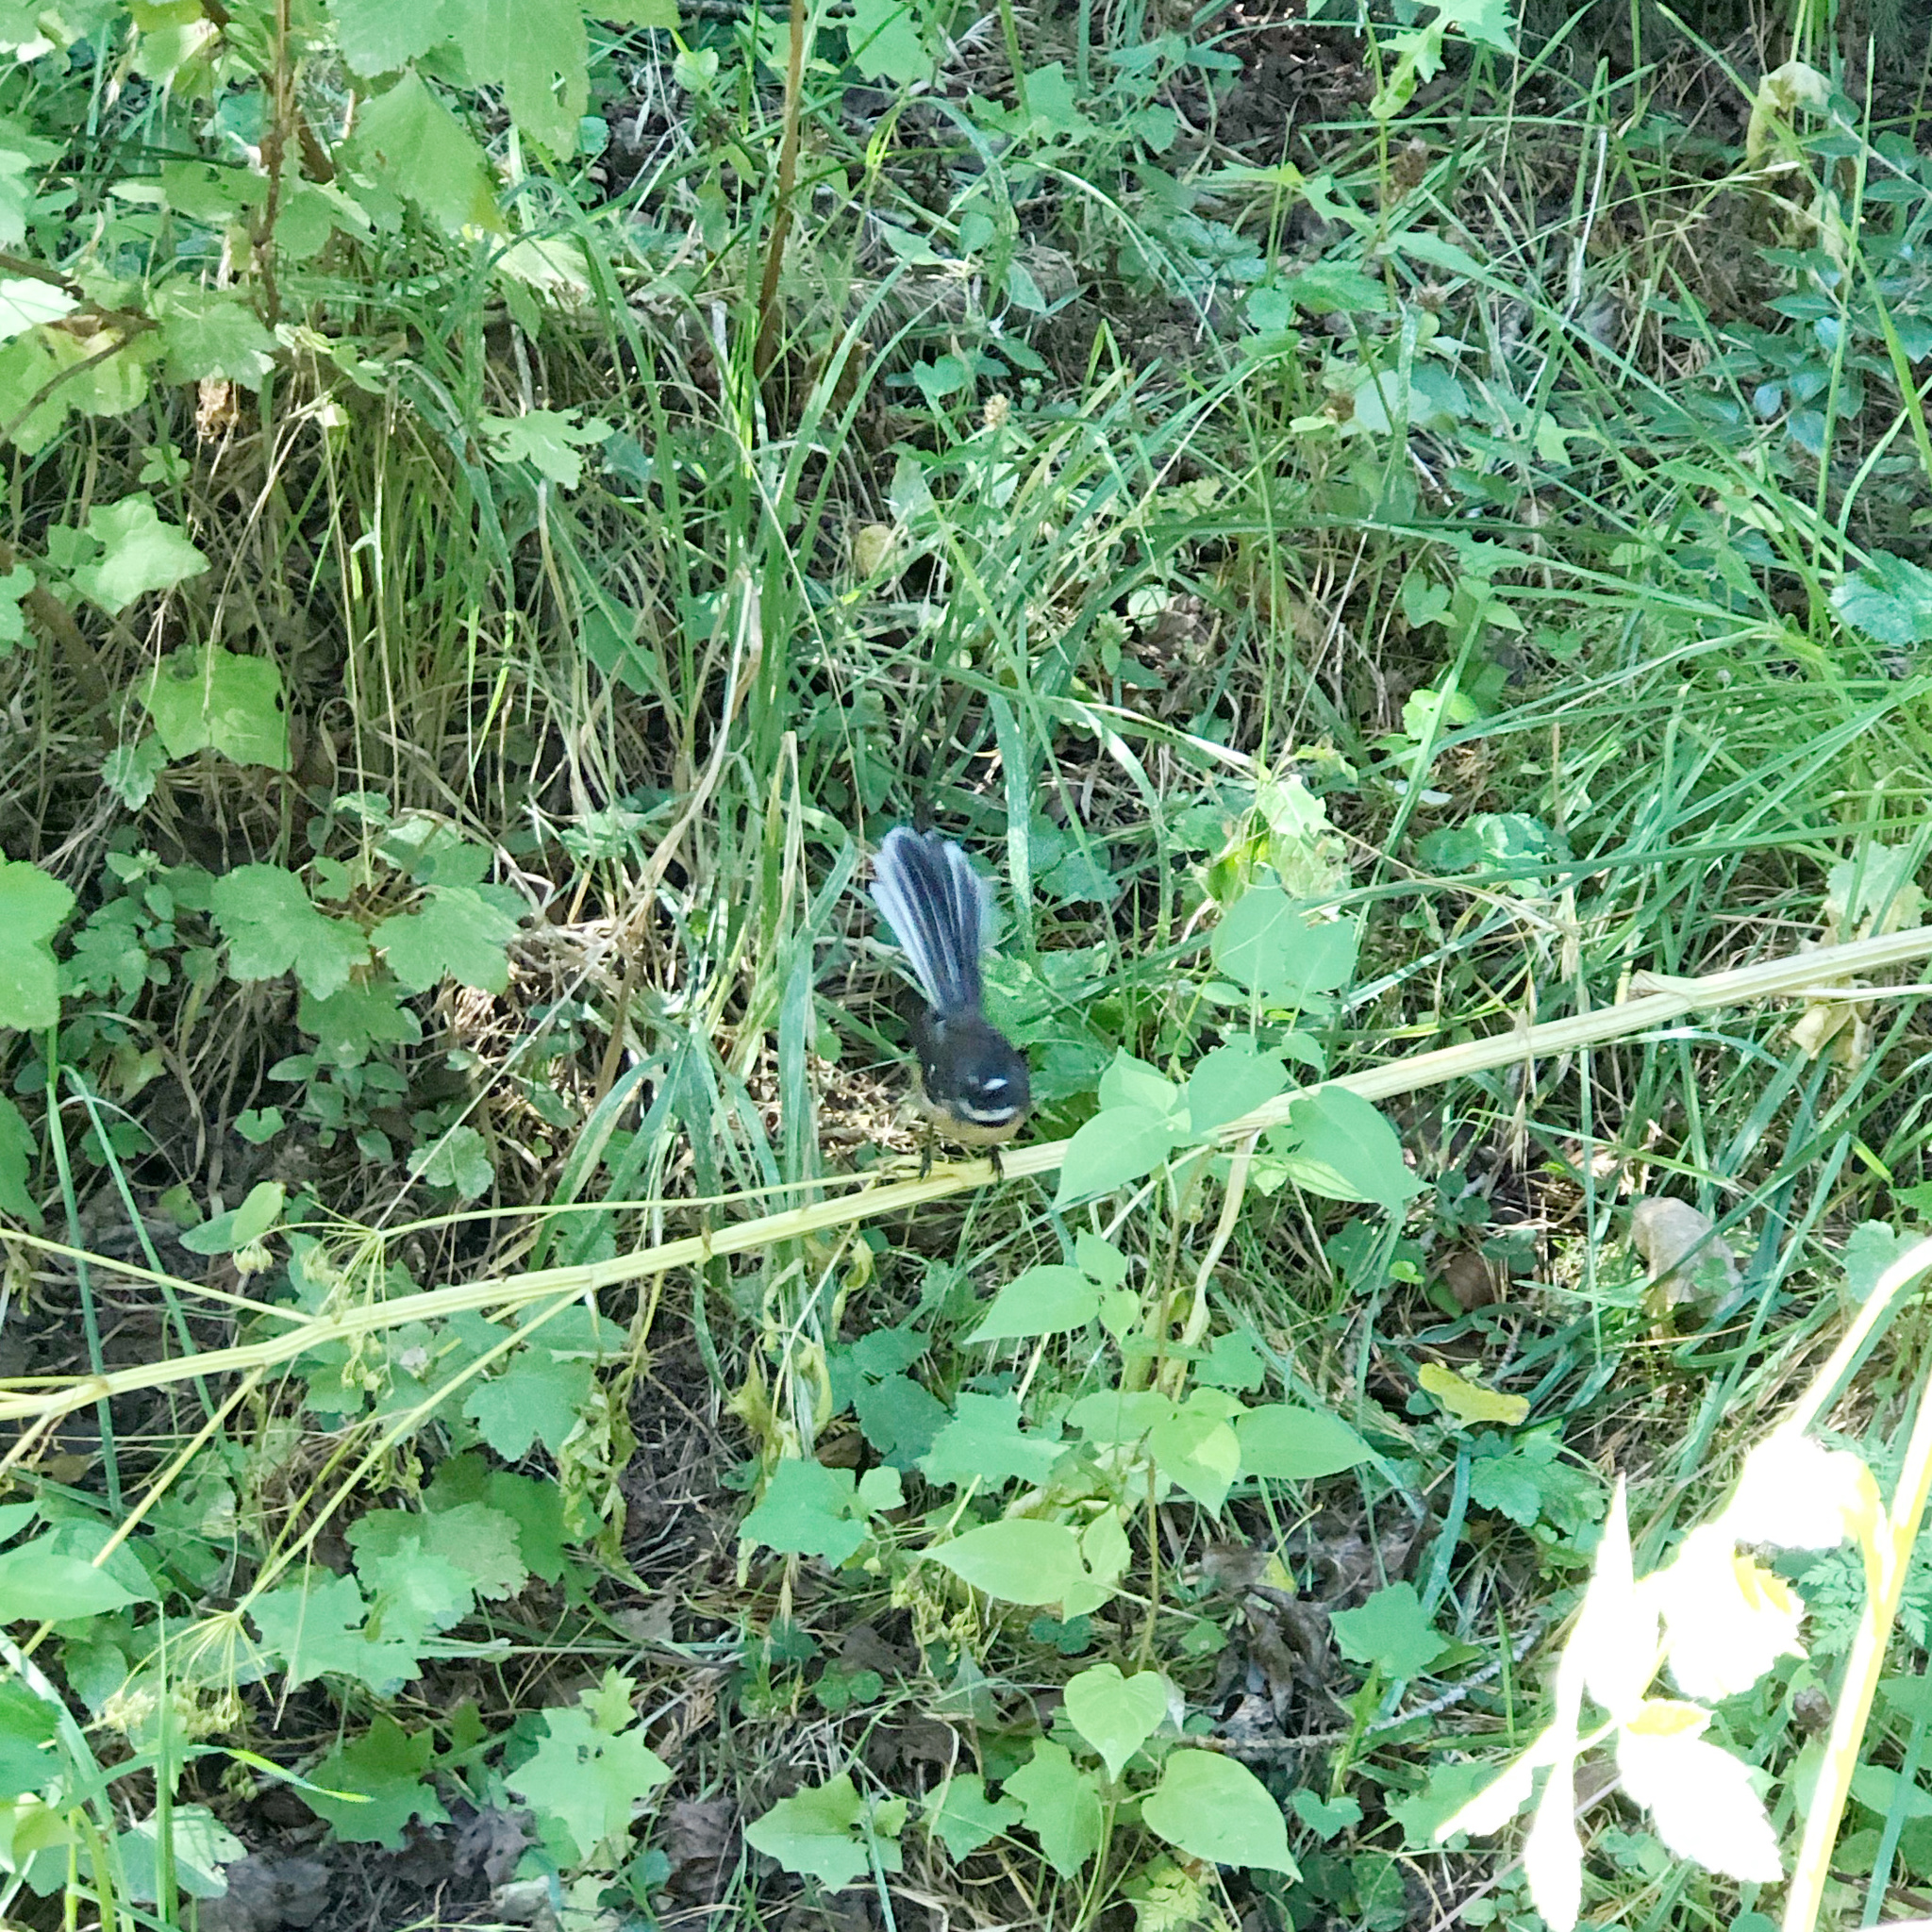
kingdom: Animalia
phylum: Chordata
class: Aves
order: Passeriformes
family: Rhipiduridae
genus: Rhipidura
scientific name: Rhipidura fuliginosa
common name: New zealand fantail
